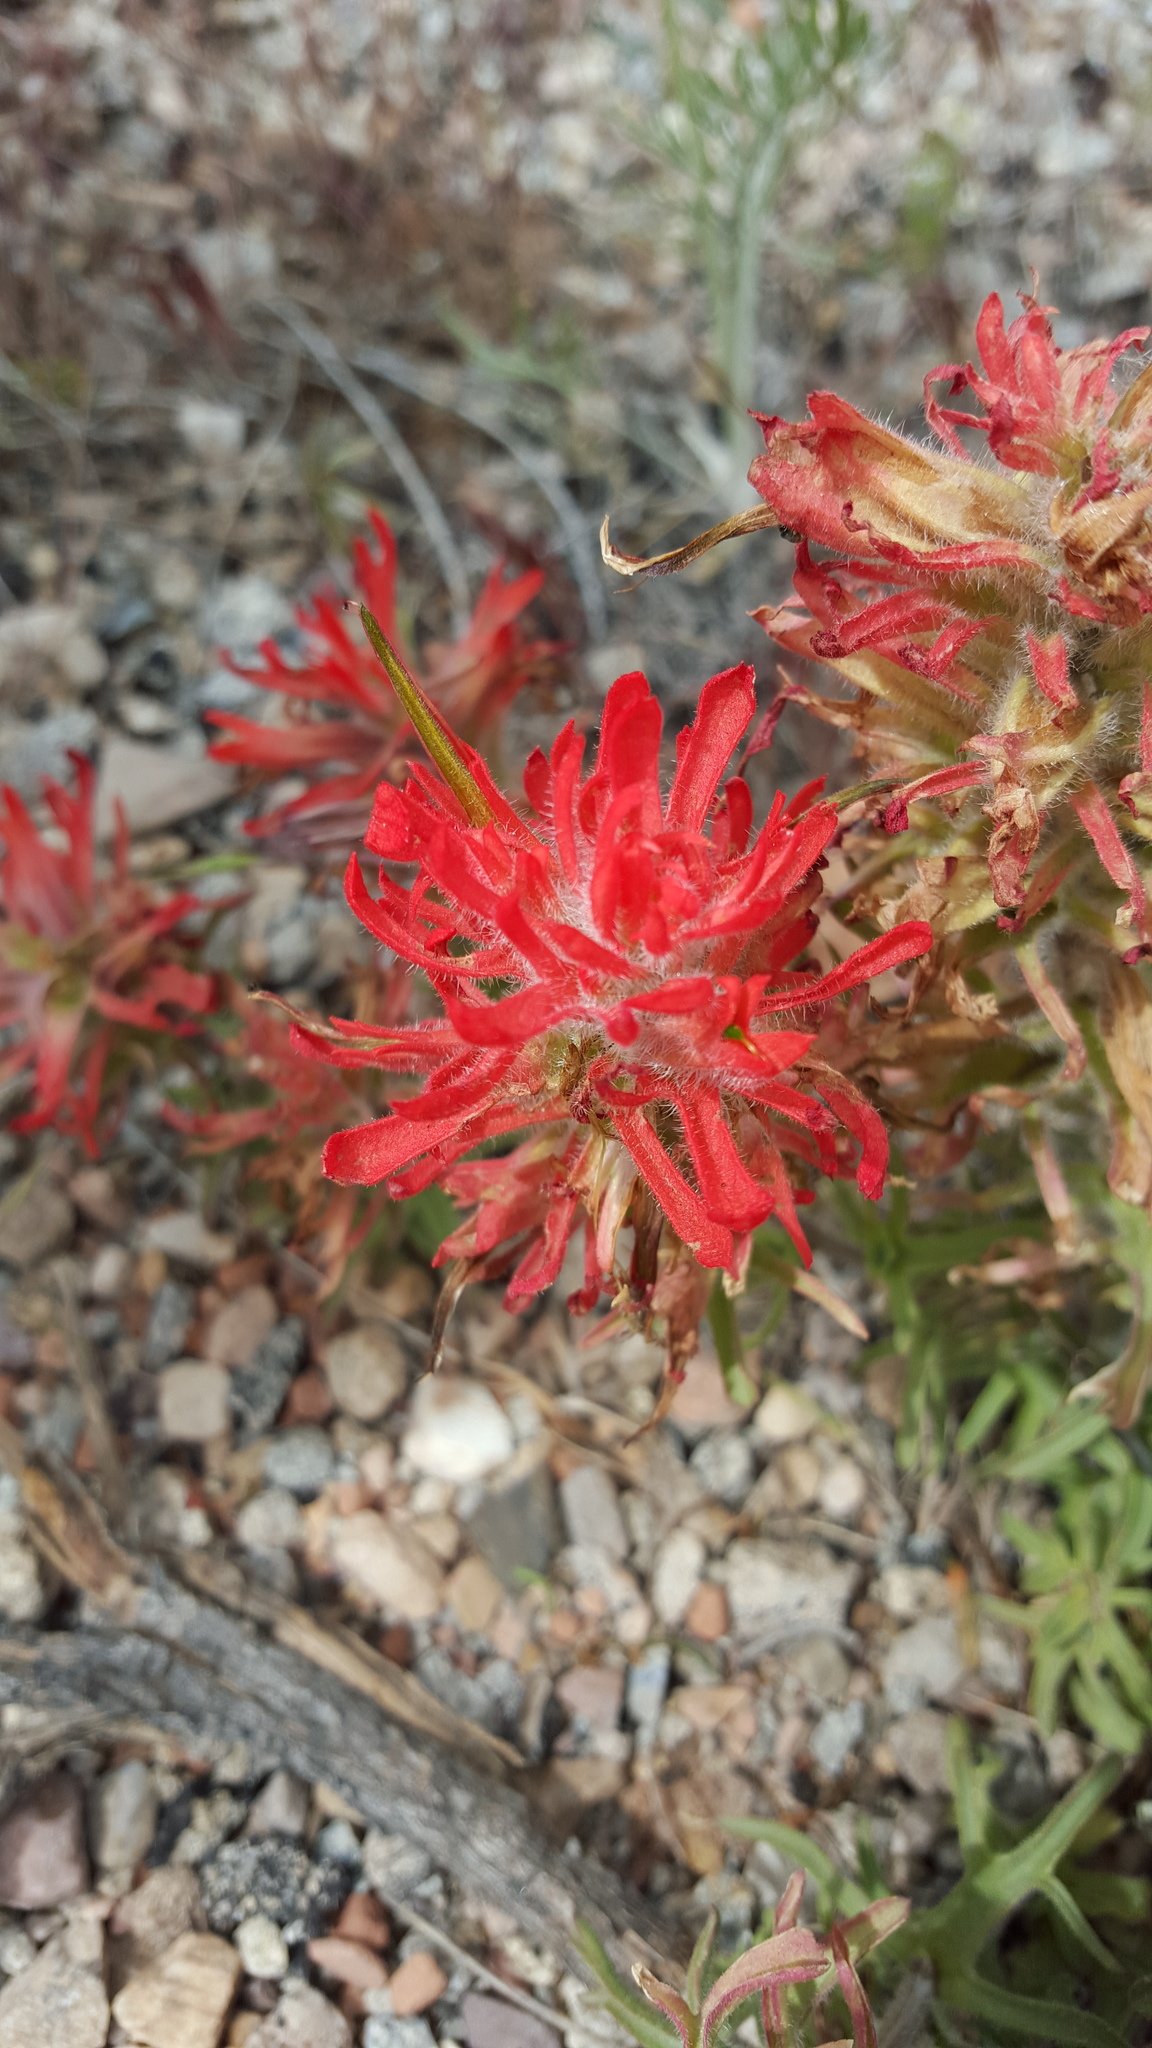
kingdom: Plantae
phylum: Tracheophyta
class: Magnoliopsida
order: Lamiales
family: Orobanchaceae
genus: Castilleja
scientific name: Castilleja chromosa
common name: Desert paintbrush
